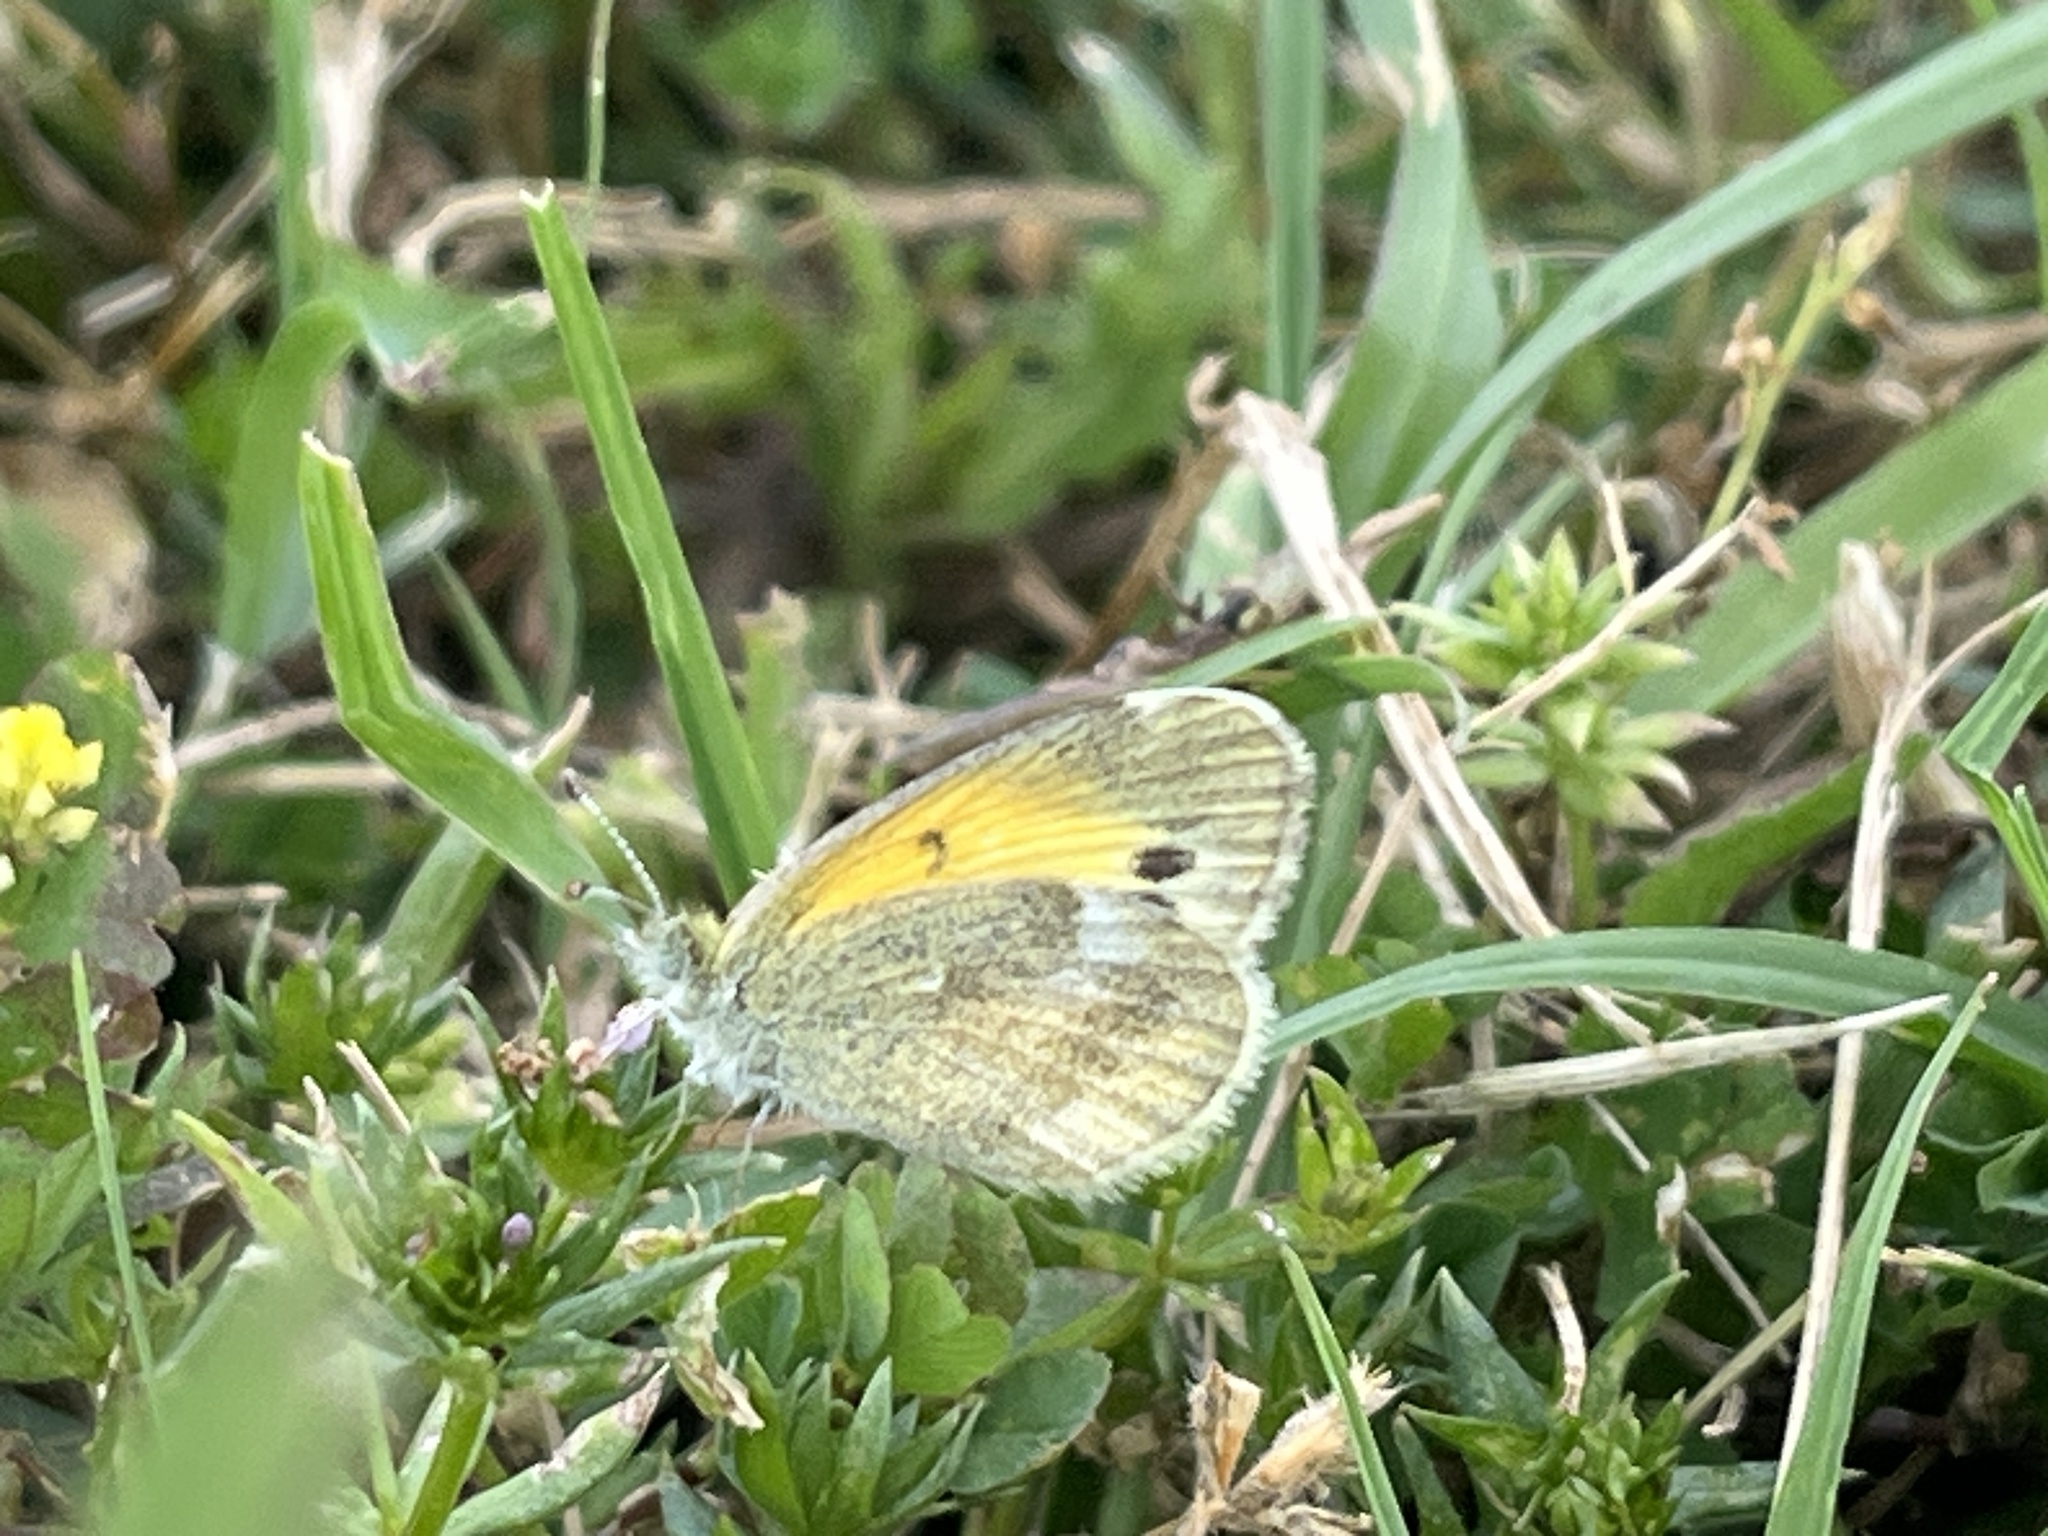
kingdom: Animalia
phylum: Arthropoda
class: Insecta
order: Lepidoptera
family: Pieridae
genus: Nathalis
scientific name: Nathalis iole
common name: Dainty sulphur
